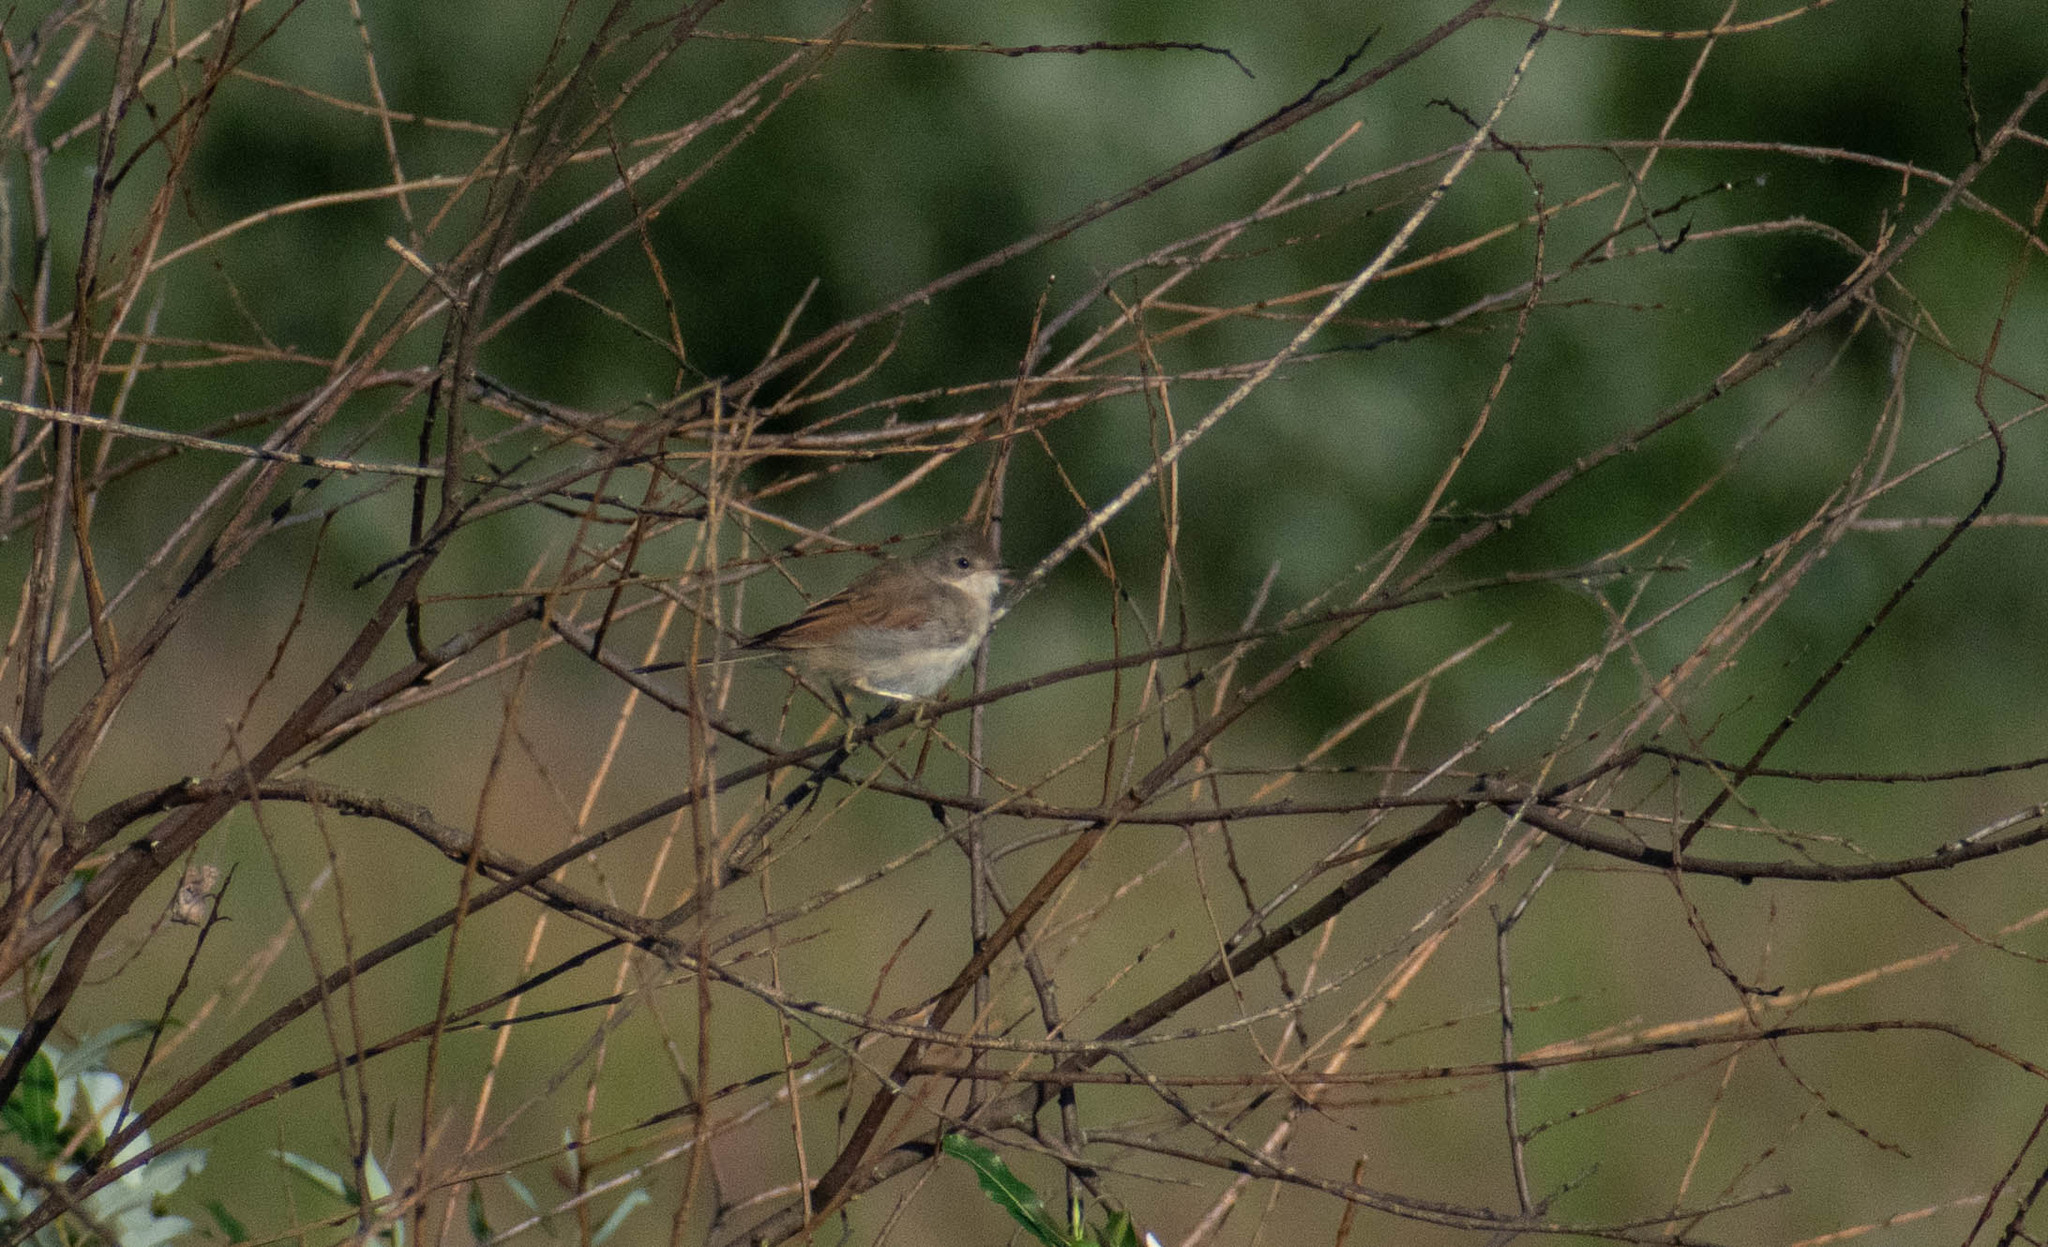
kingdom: Animalia
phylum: Chordata
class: Aves
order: Passeriformes
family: Sylviidae
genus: Sylvia
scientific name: Sylvia communis
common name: Common whitethroat
